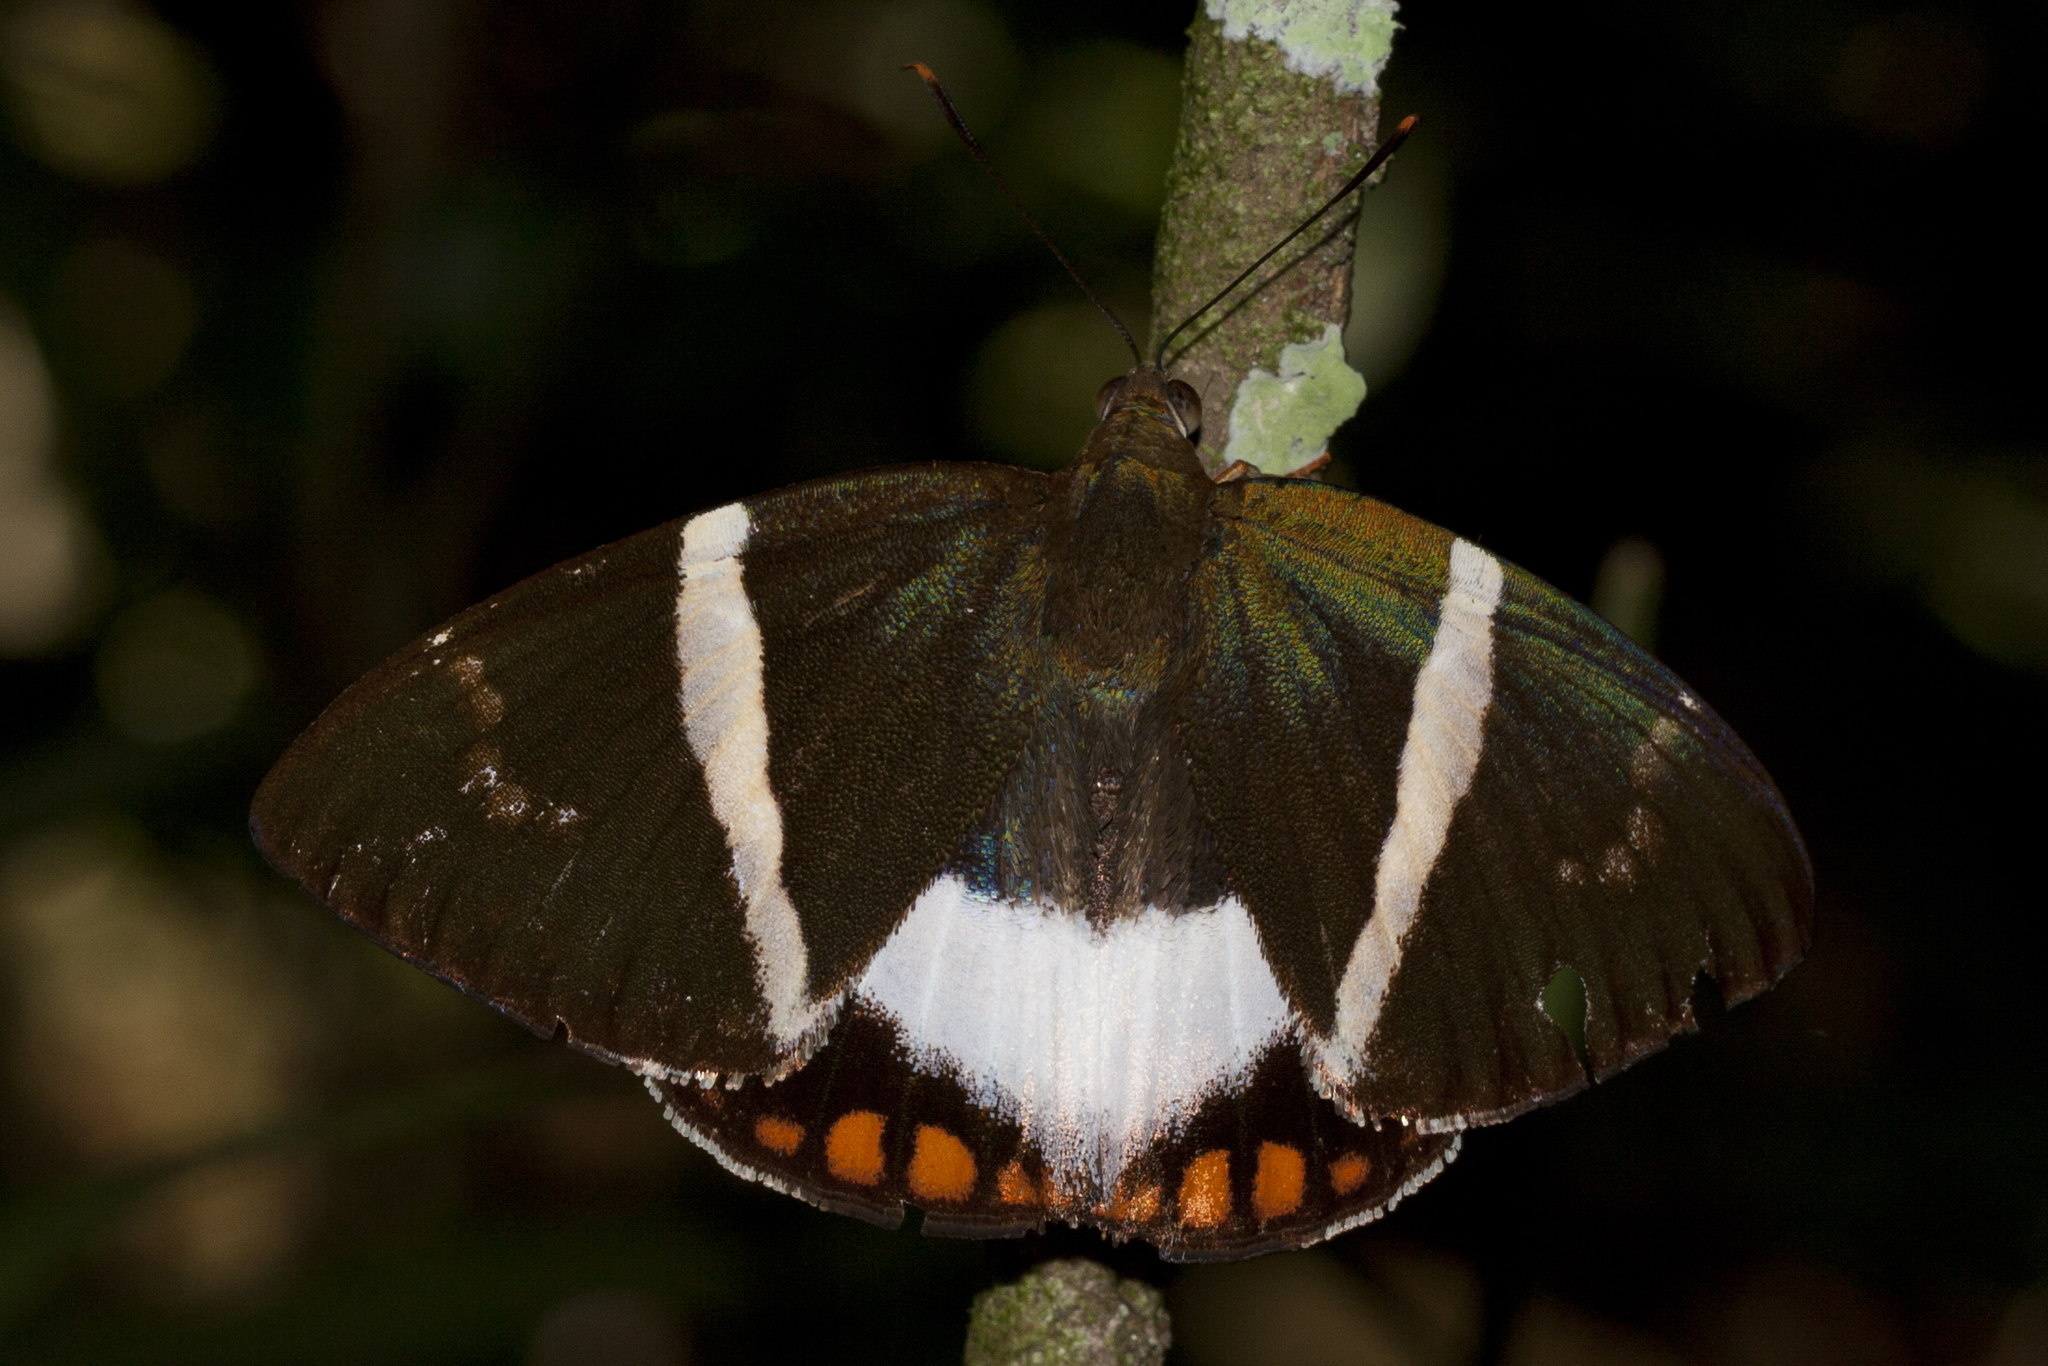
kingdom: Animalia
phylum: Arthropoda
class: Insecta
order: Lepidoptera
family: Castniidae
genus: Castnia
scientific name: Castnia licus
